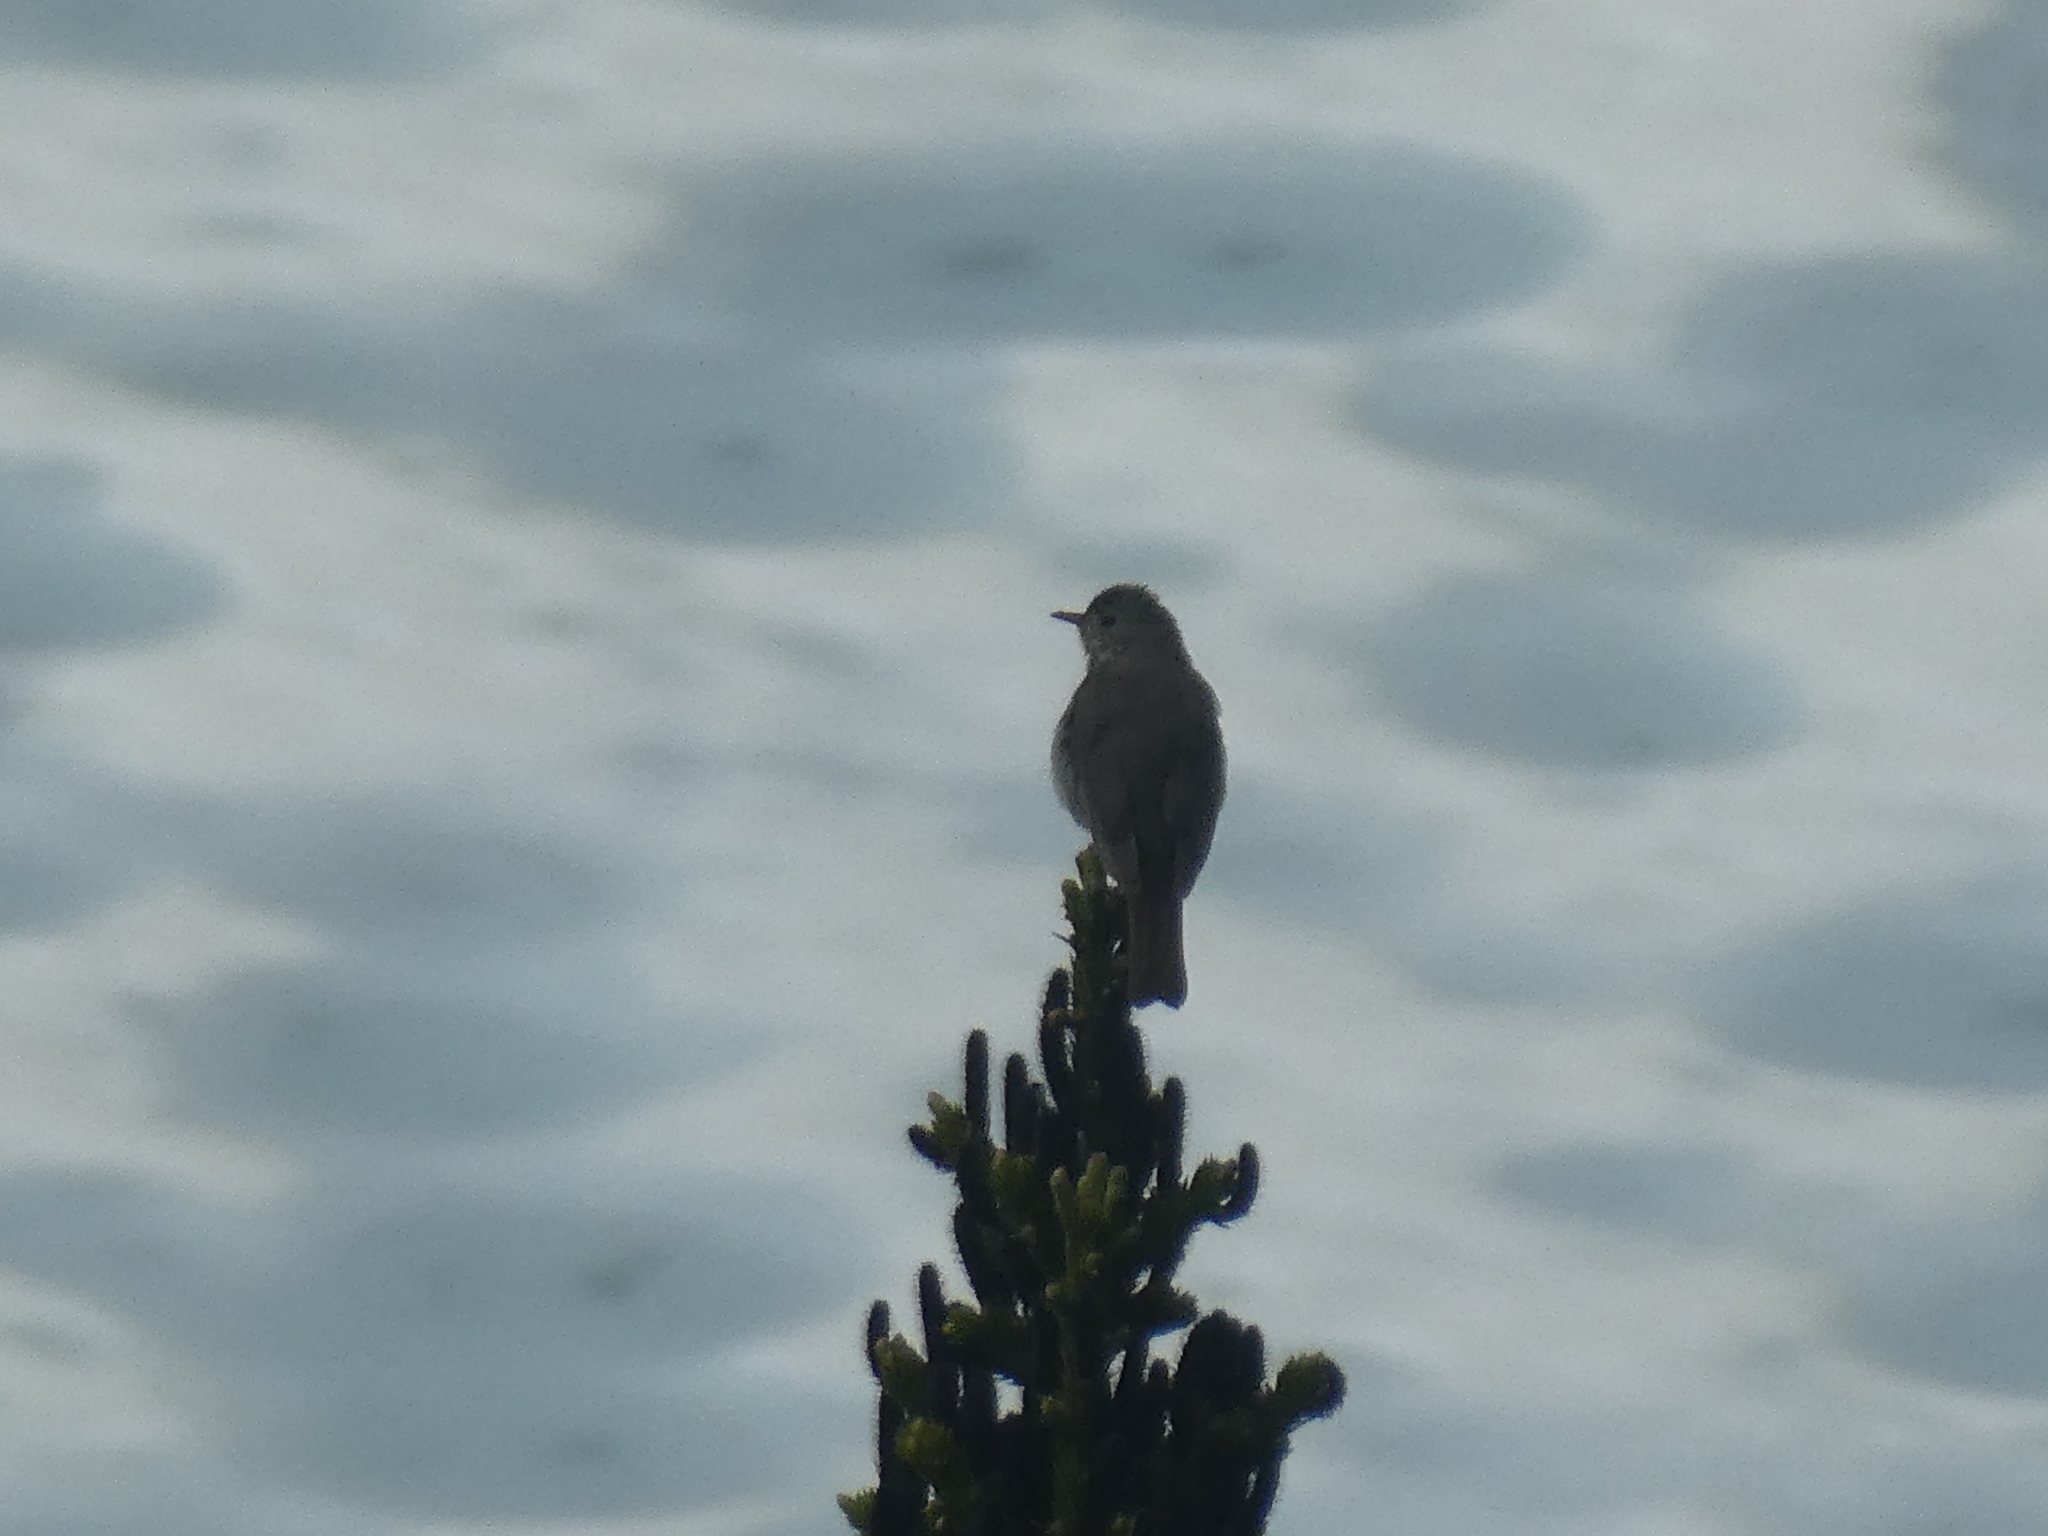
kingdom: Animalia
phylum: Chordata
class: Aves
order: Passeriformes
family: Turdidae
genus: Catharus
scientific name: Catharus guttatus
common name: Hermit thrush
